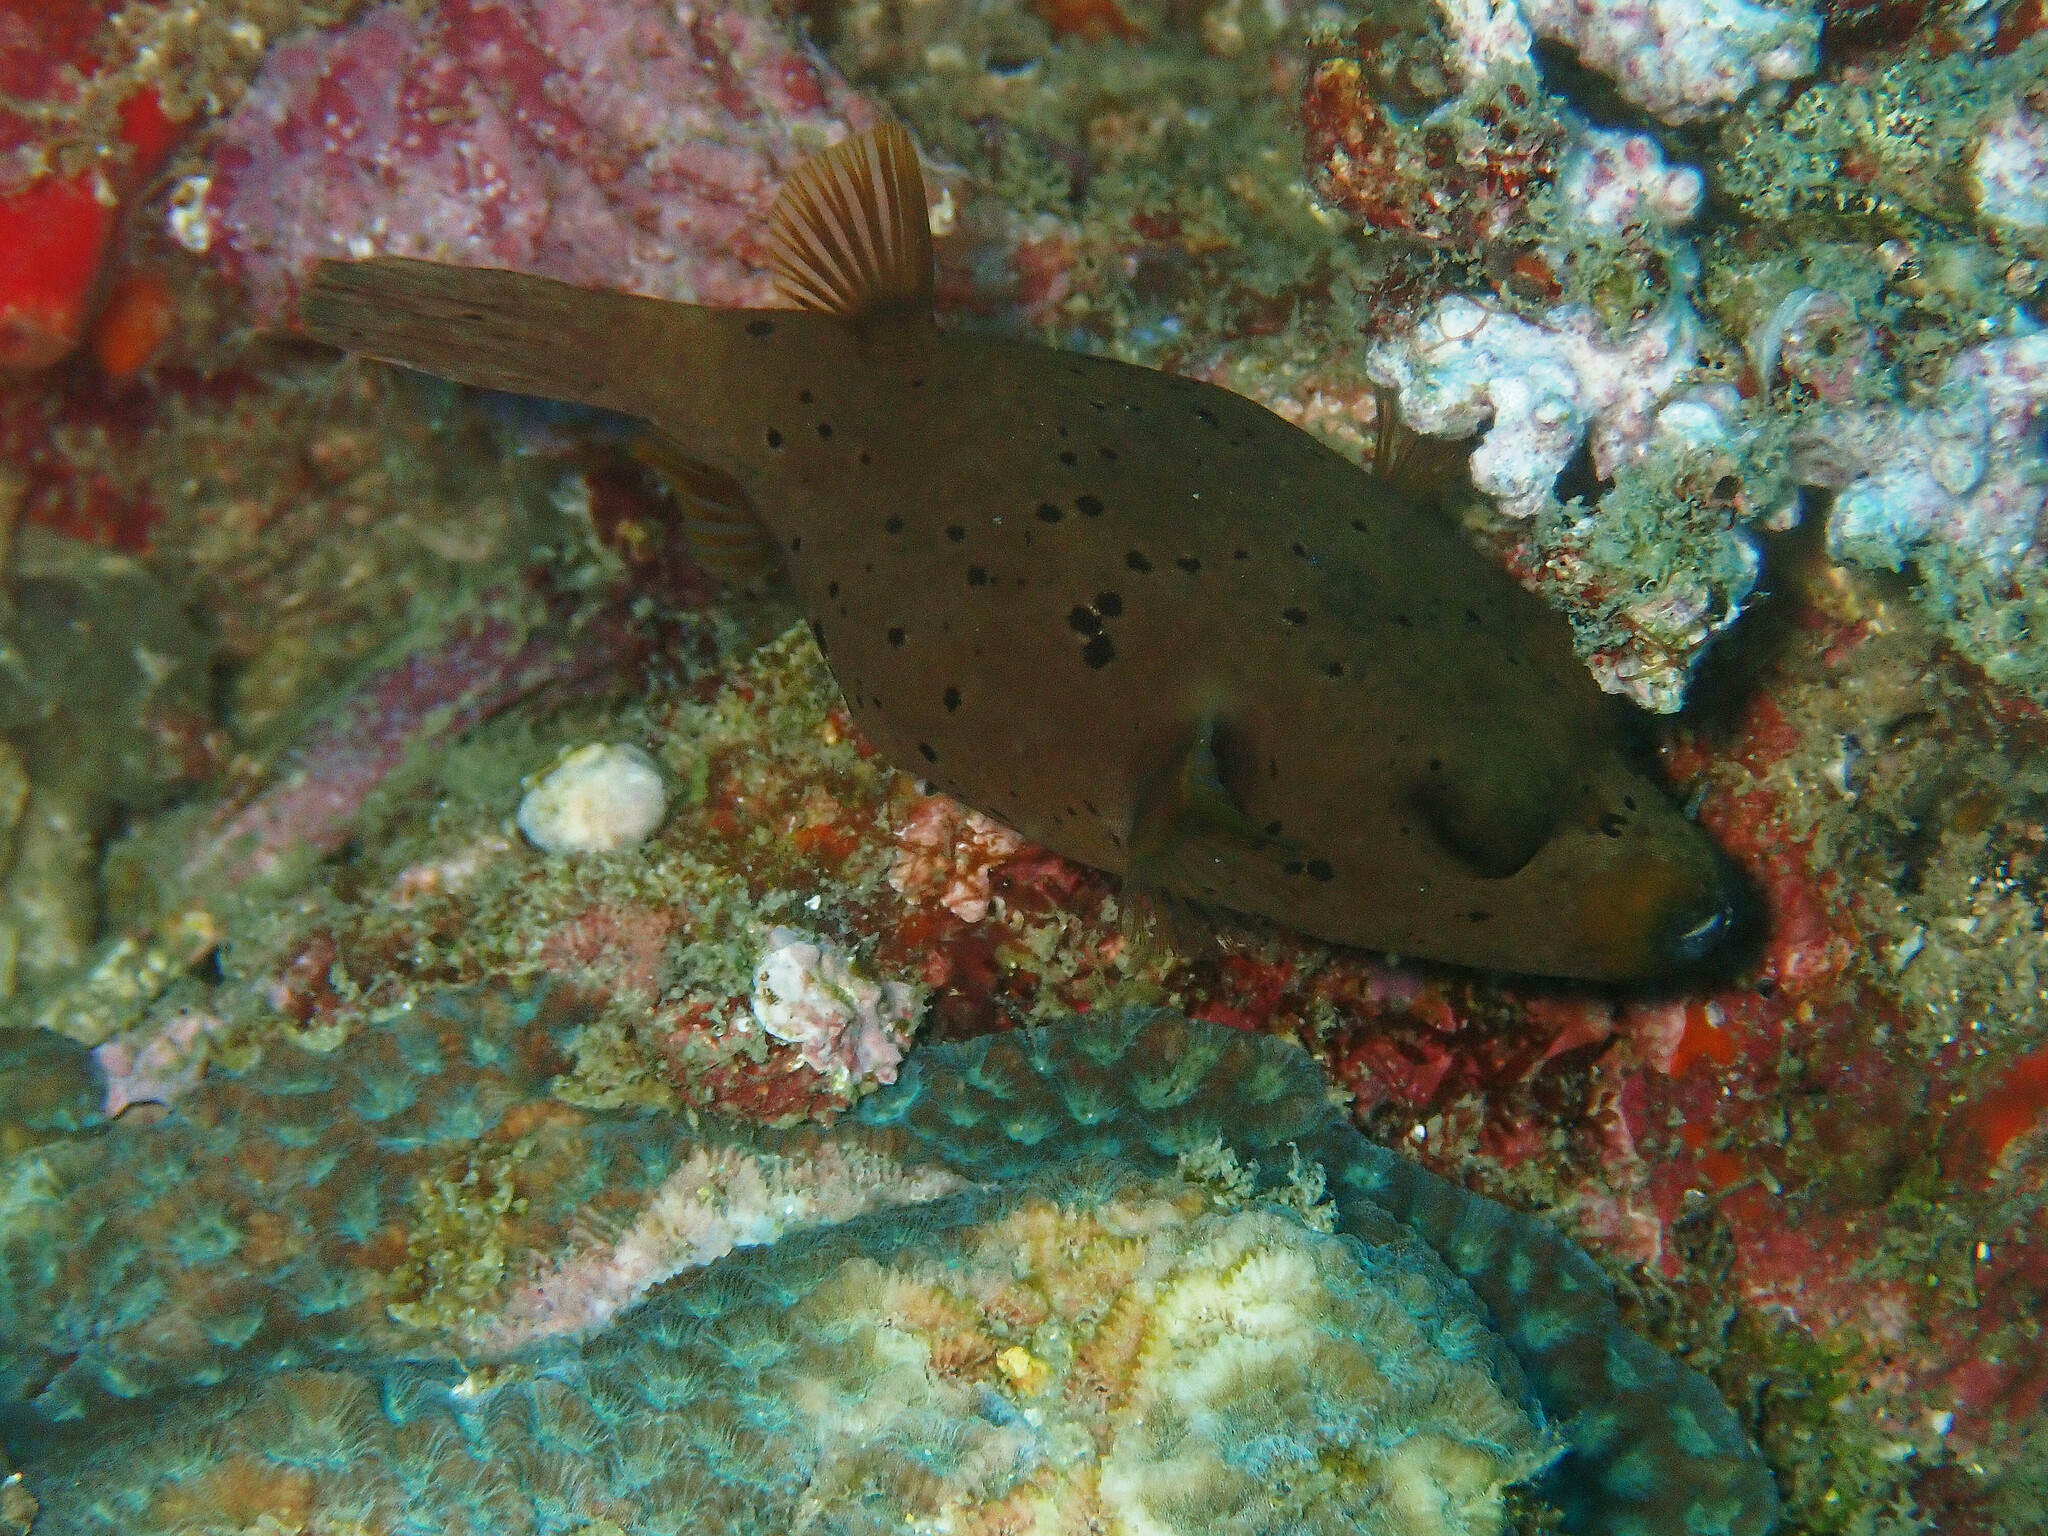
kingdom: Animalia
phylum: Chordata
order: Tetraodontiformes
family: Tetraodontidae
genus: Arothron
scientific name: Arothron nigropunctatus
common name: Black spotted blow fish
